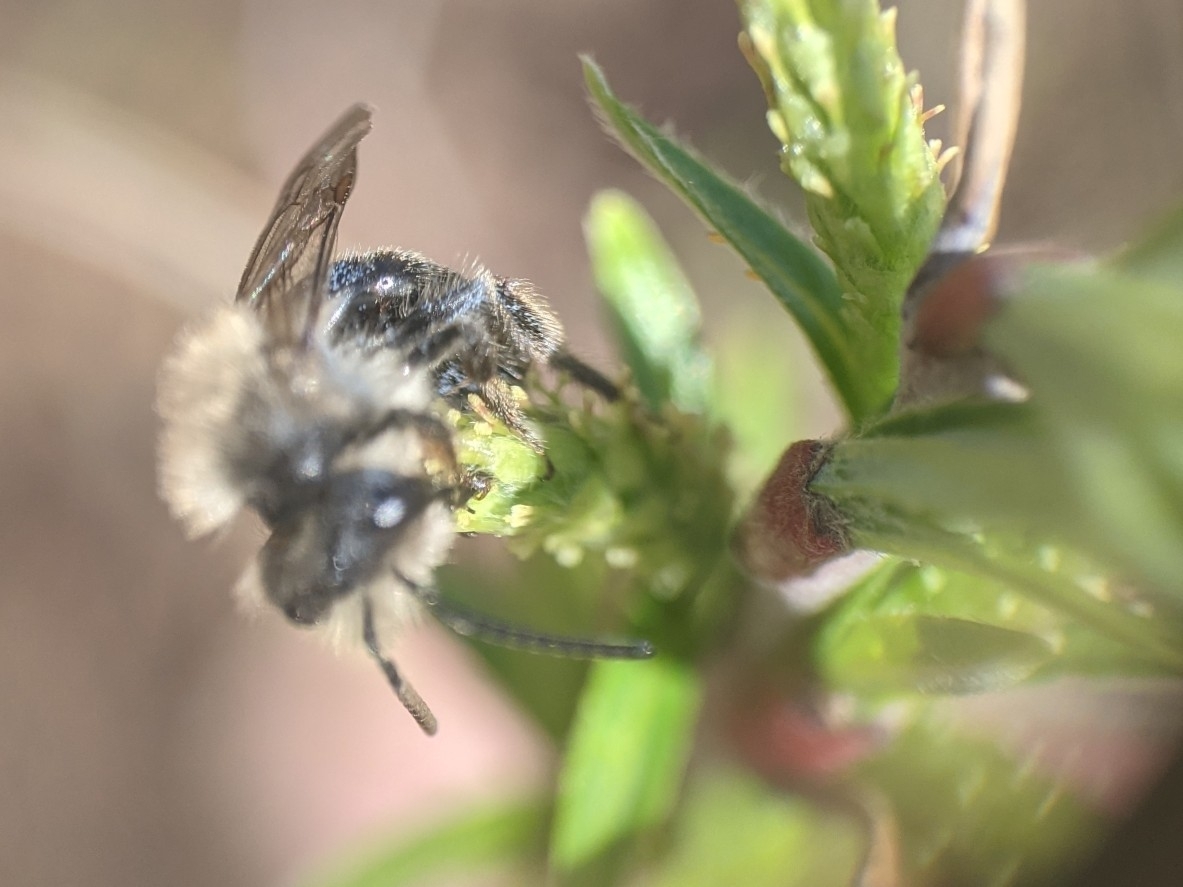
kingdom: Animalia
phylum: Arthropoda
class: Insecta
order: Hymenoptera
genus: Melandrena
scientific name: Melandrena
